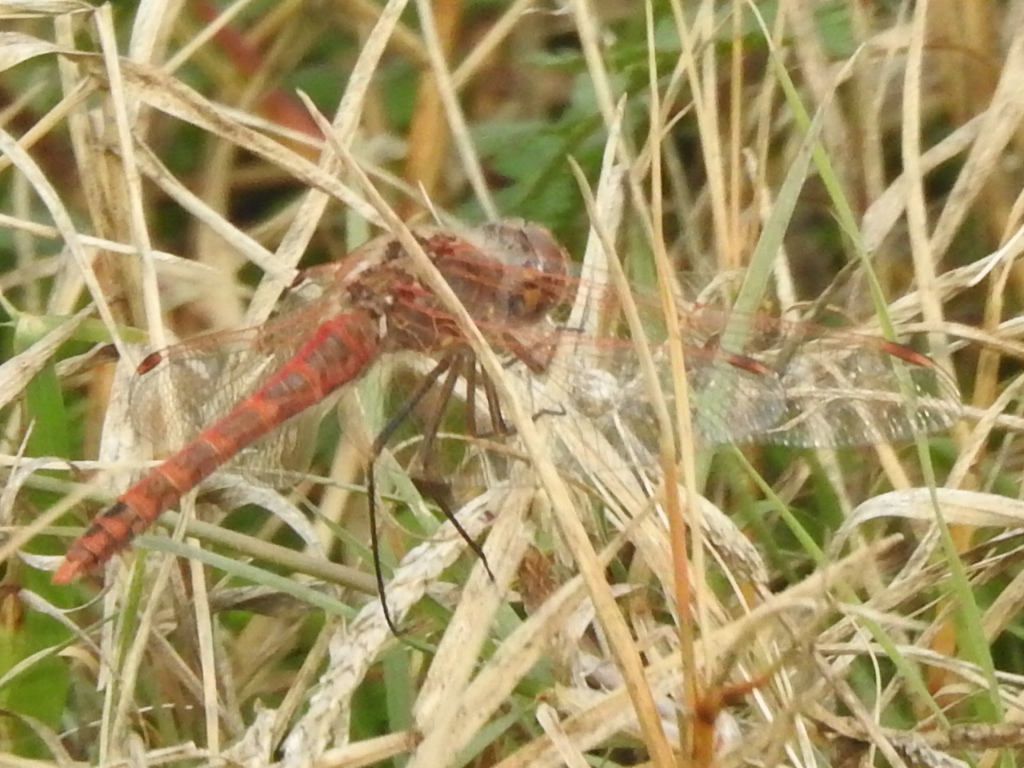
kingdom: Animalia
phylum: Arthropoda
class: Insecta
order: Odonata
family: Libellulidae
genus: Sympetrum
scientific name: Sympetrum corruptum
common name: Variegated meadowhawk
